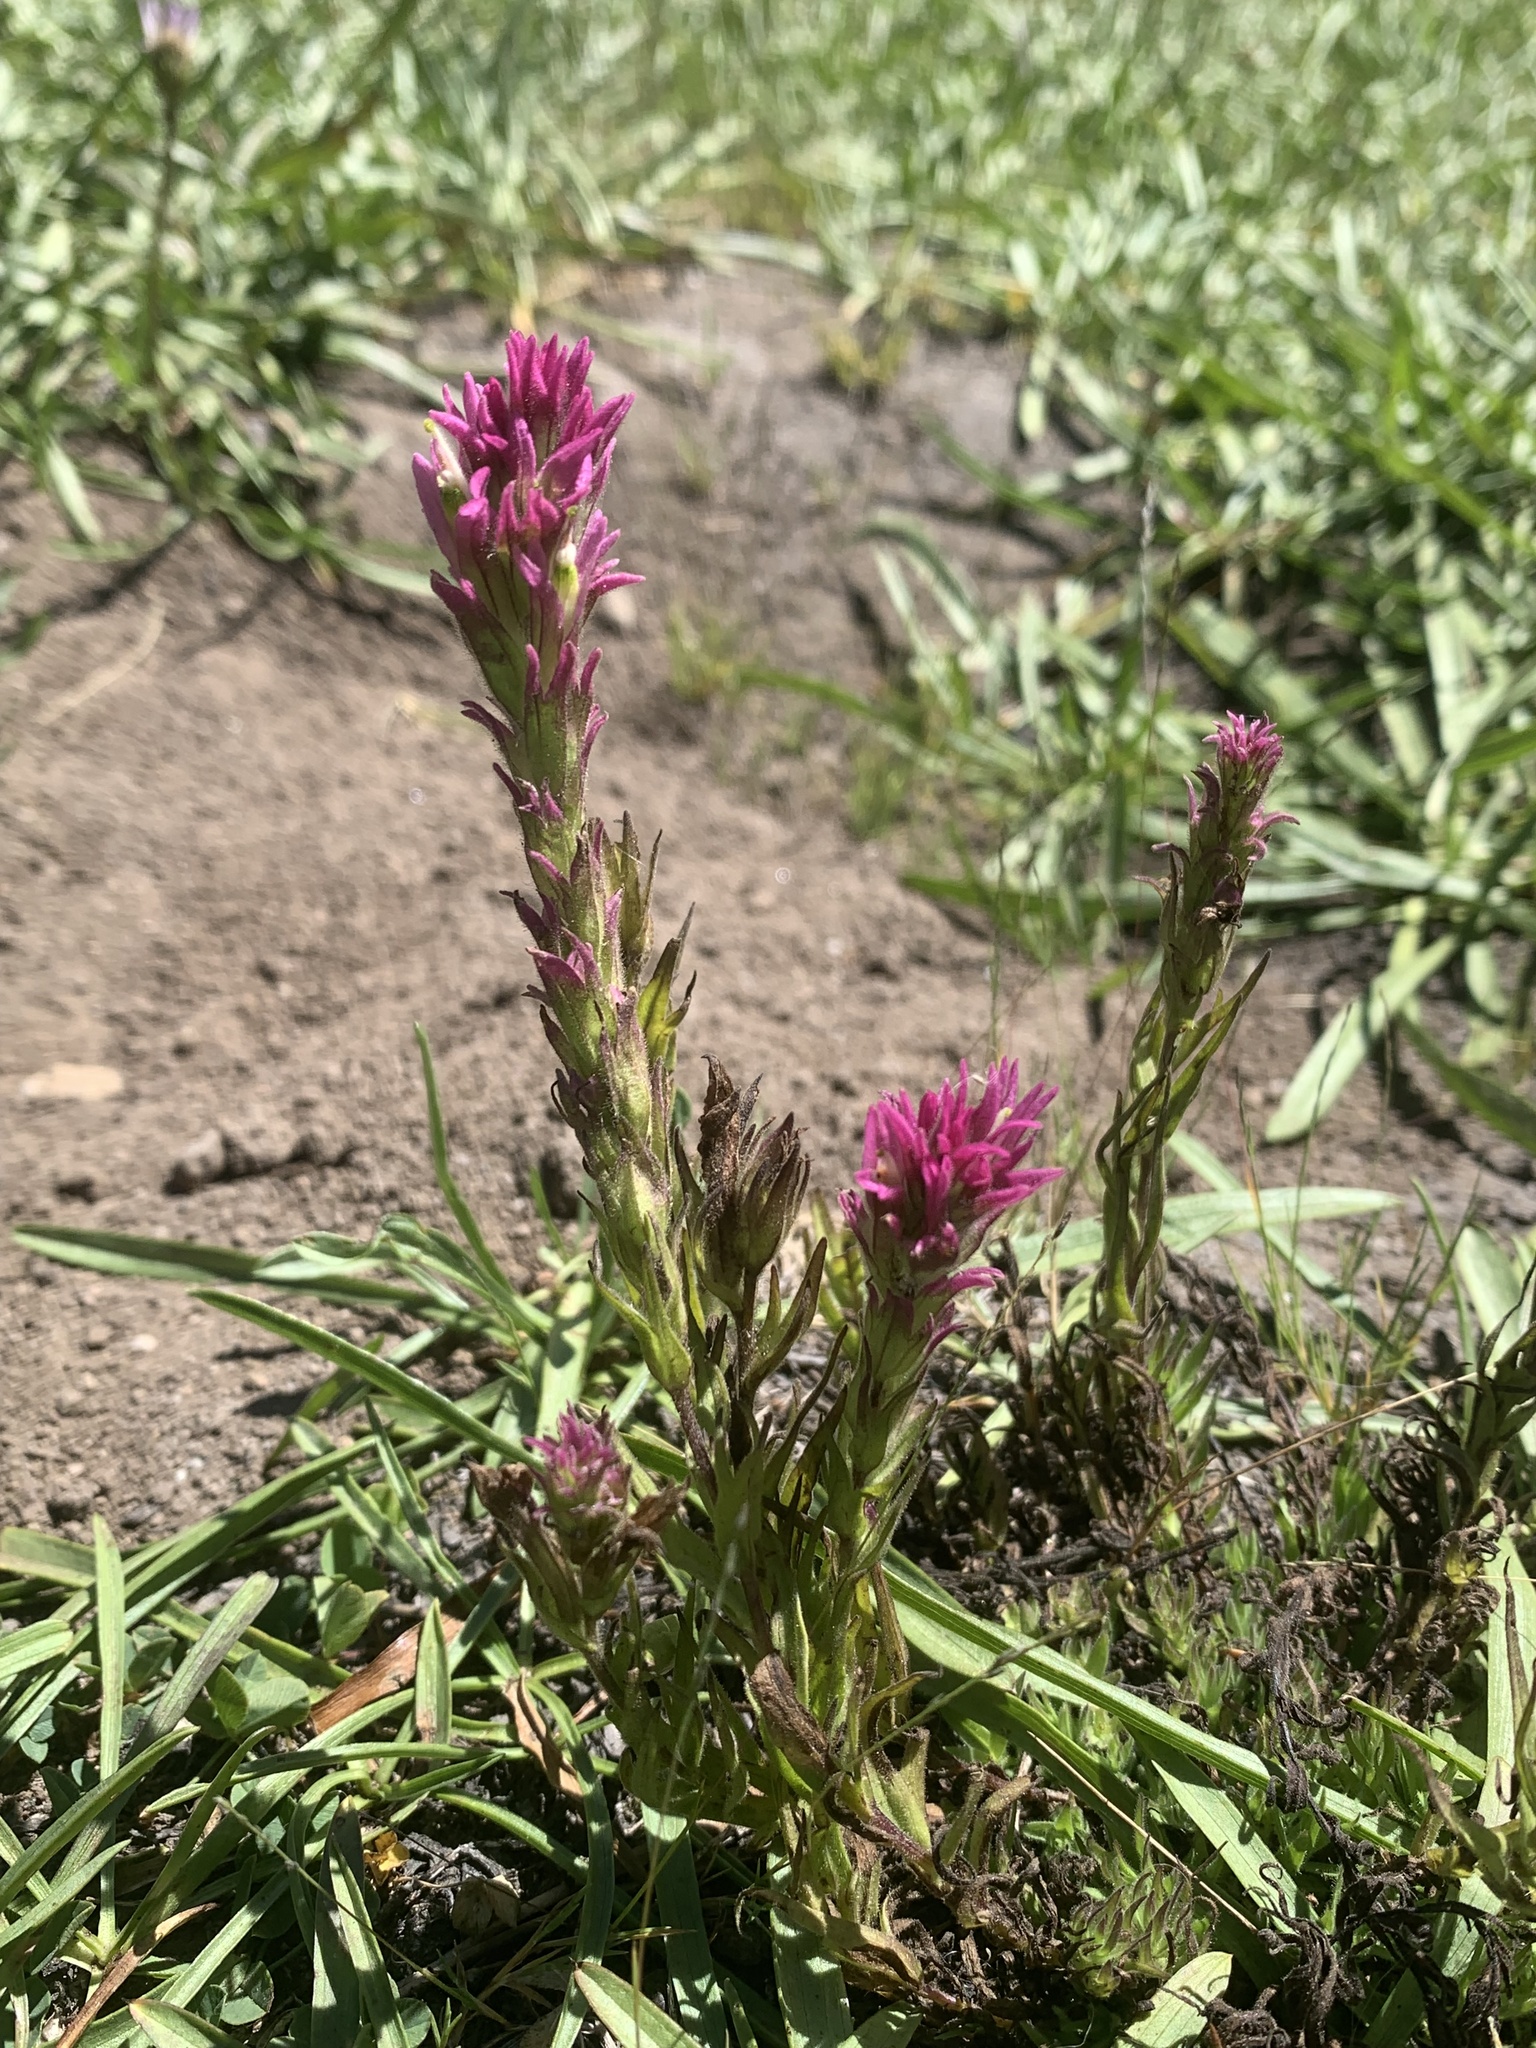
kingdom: Plantae
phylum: Tracheophyta
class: Magnoliopsida
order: Lamiales
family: Orobanchaceae
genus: Castilleja
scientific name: Castilleja lassenensis
